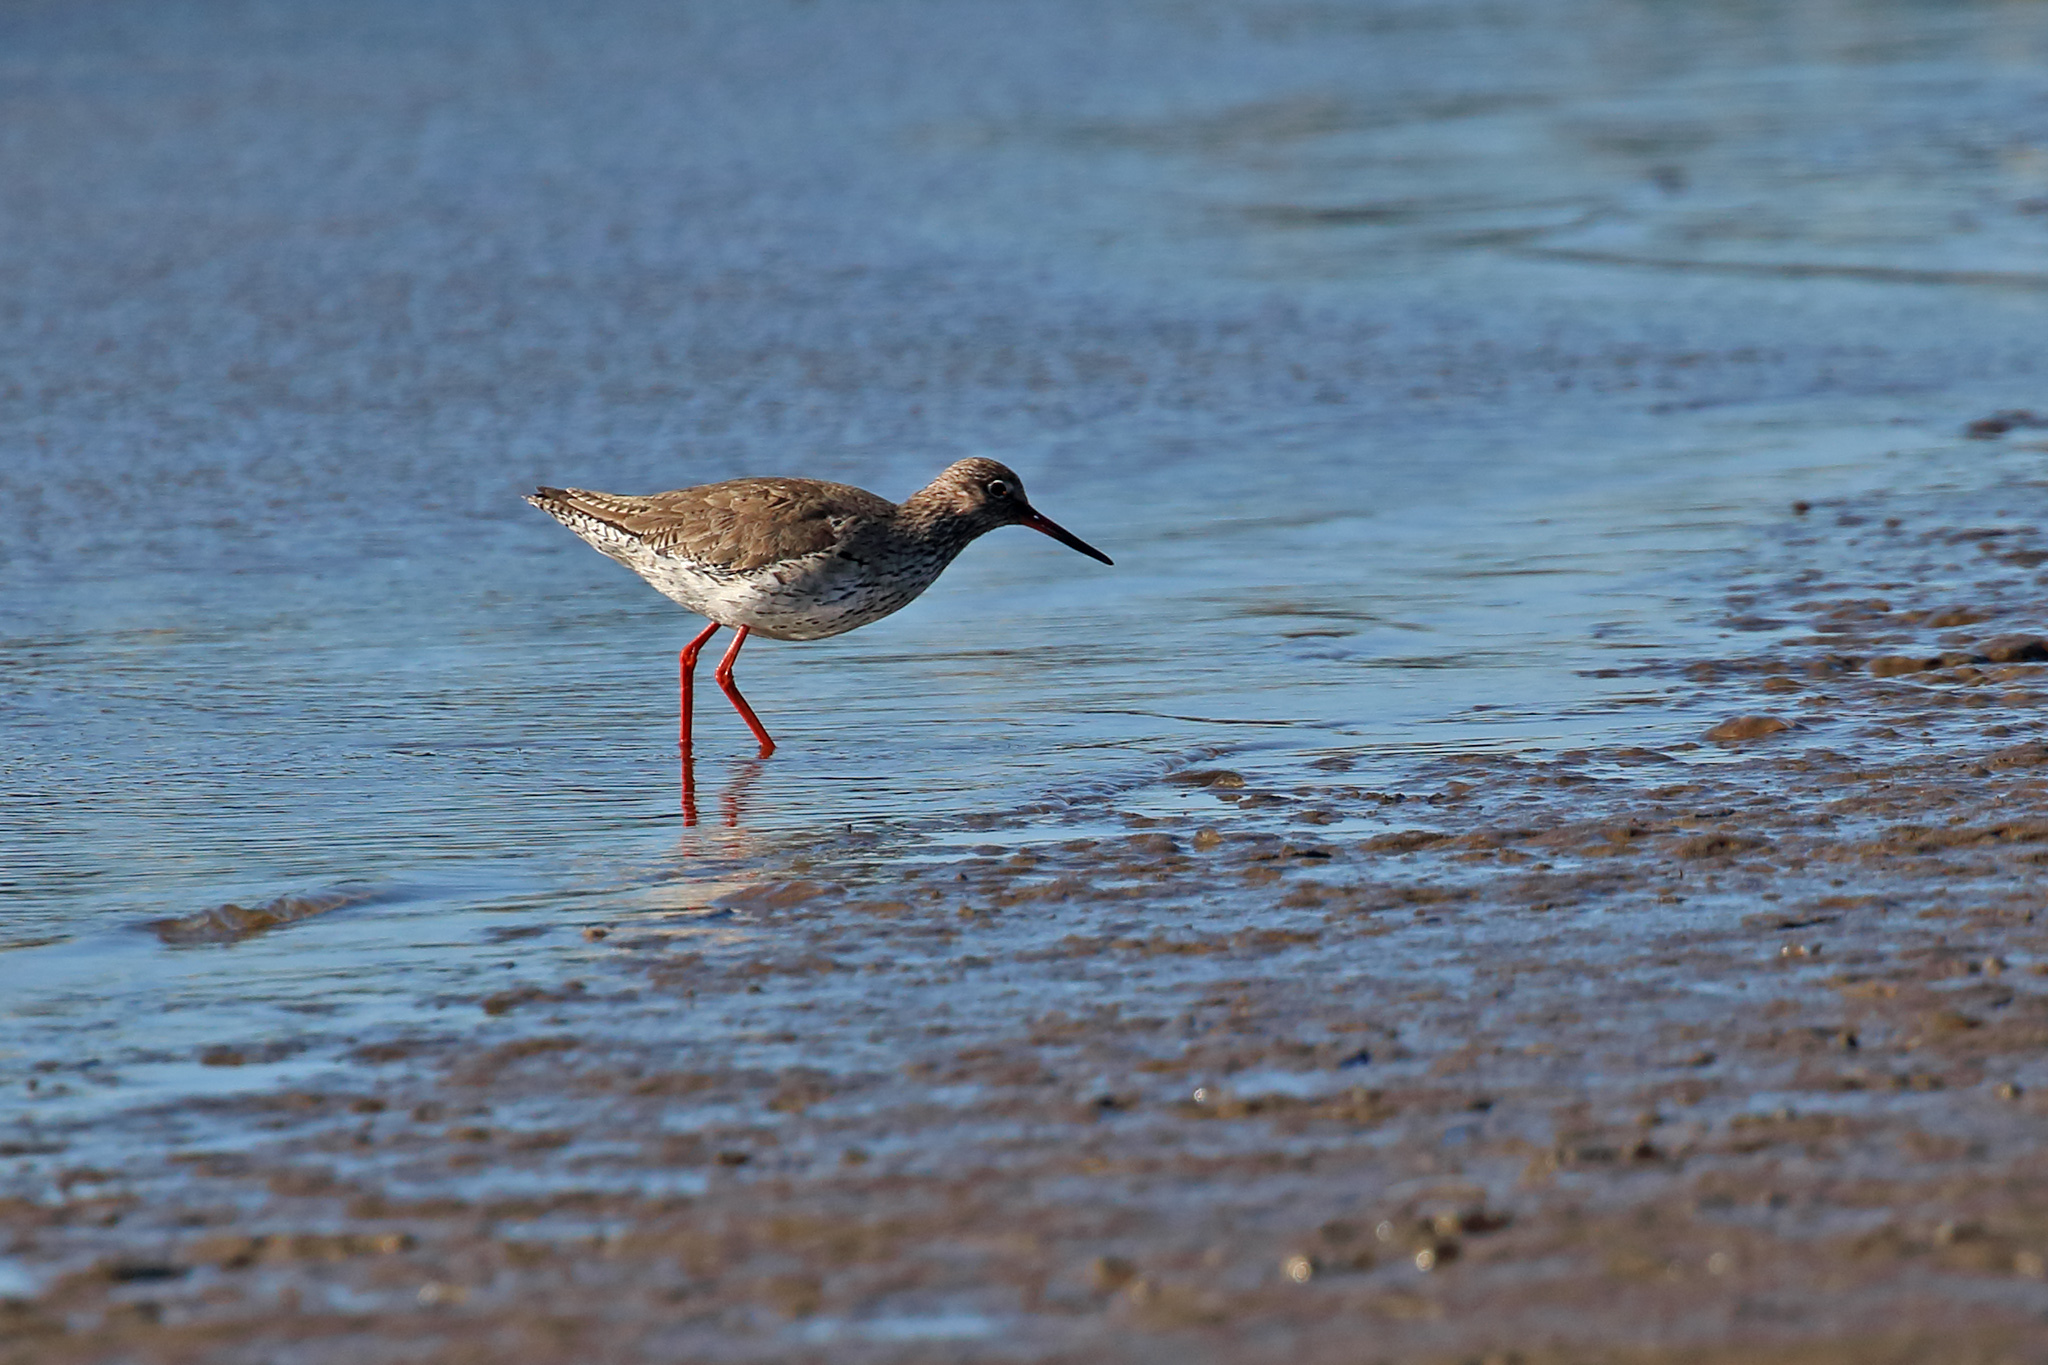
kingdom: Animalia
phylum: Chordata
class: Aves
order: Charadriiformes
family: Scolopacidae
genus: Tringa
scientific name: Tringa totanus
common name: Common redshank
